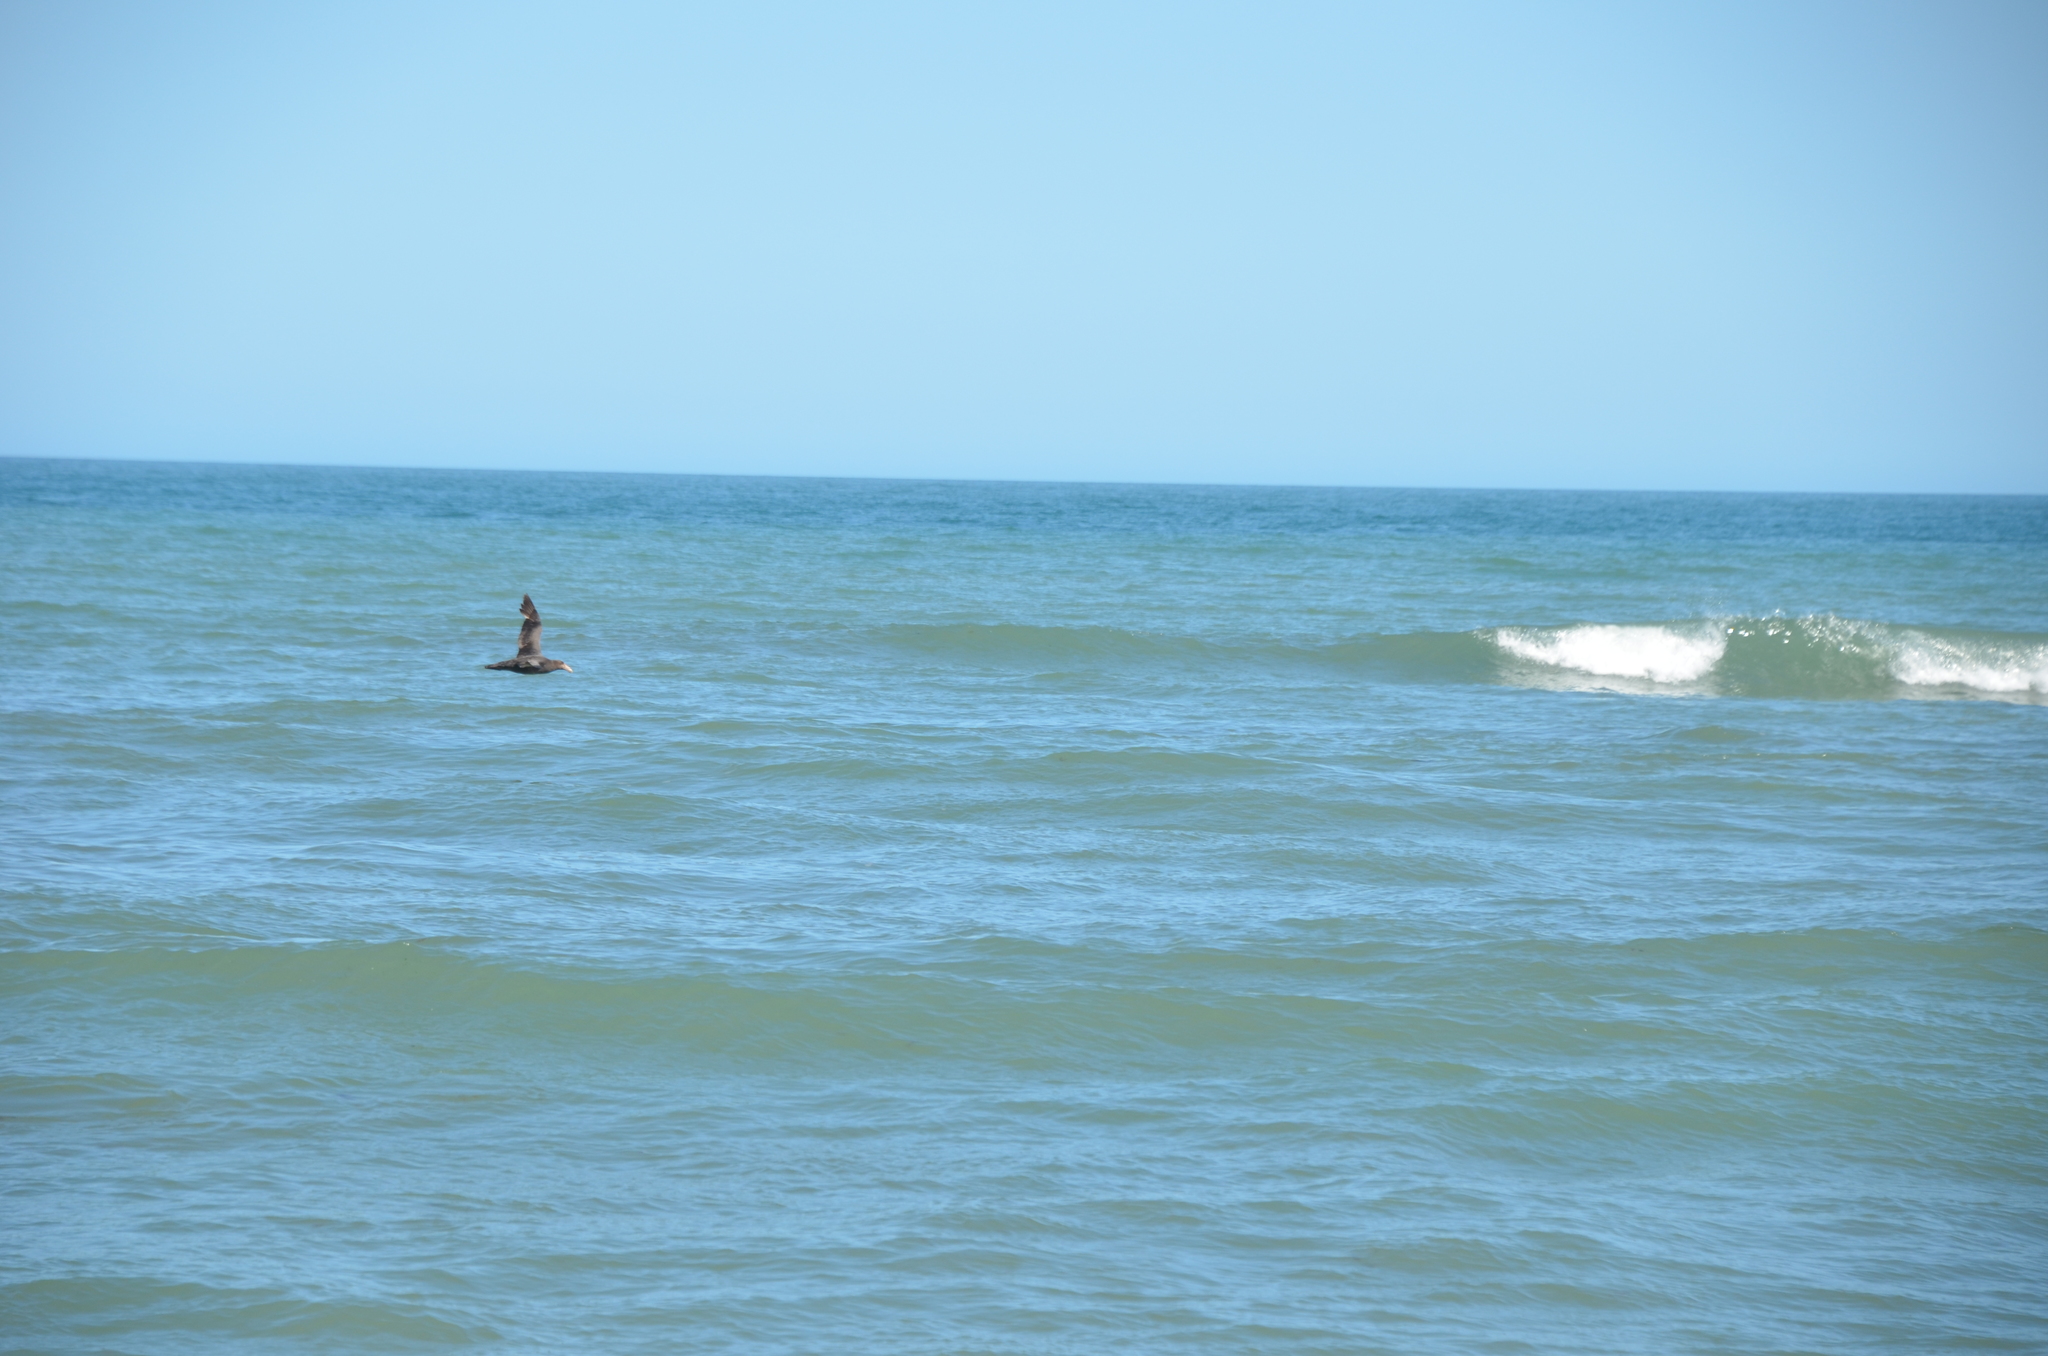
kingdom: Animalia
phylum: Chordata
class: Aves
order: Procellariiformes
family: Procellariidae
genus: Macronectes
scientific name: Macronectes giganteus
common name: Southern giant petrel
